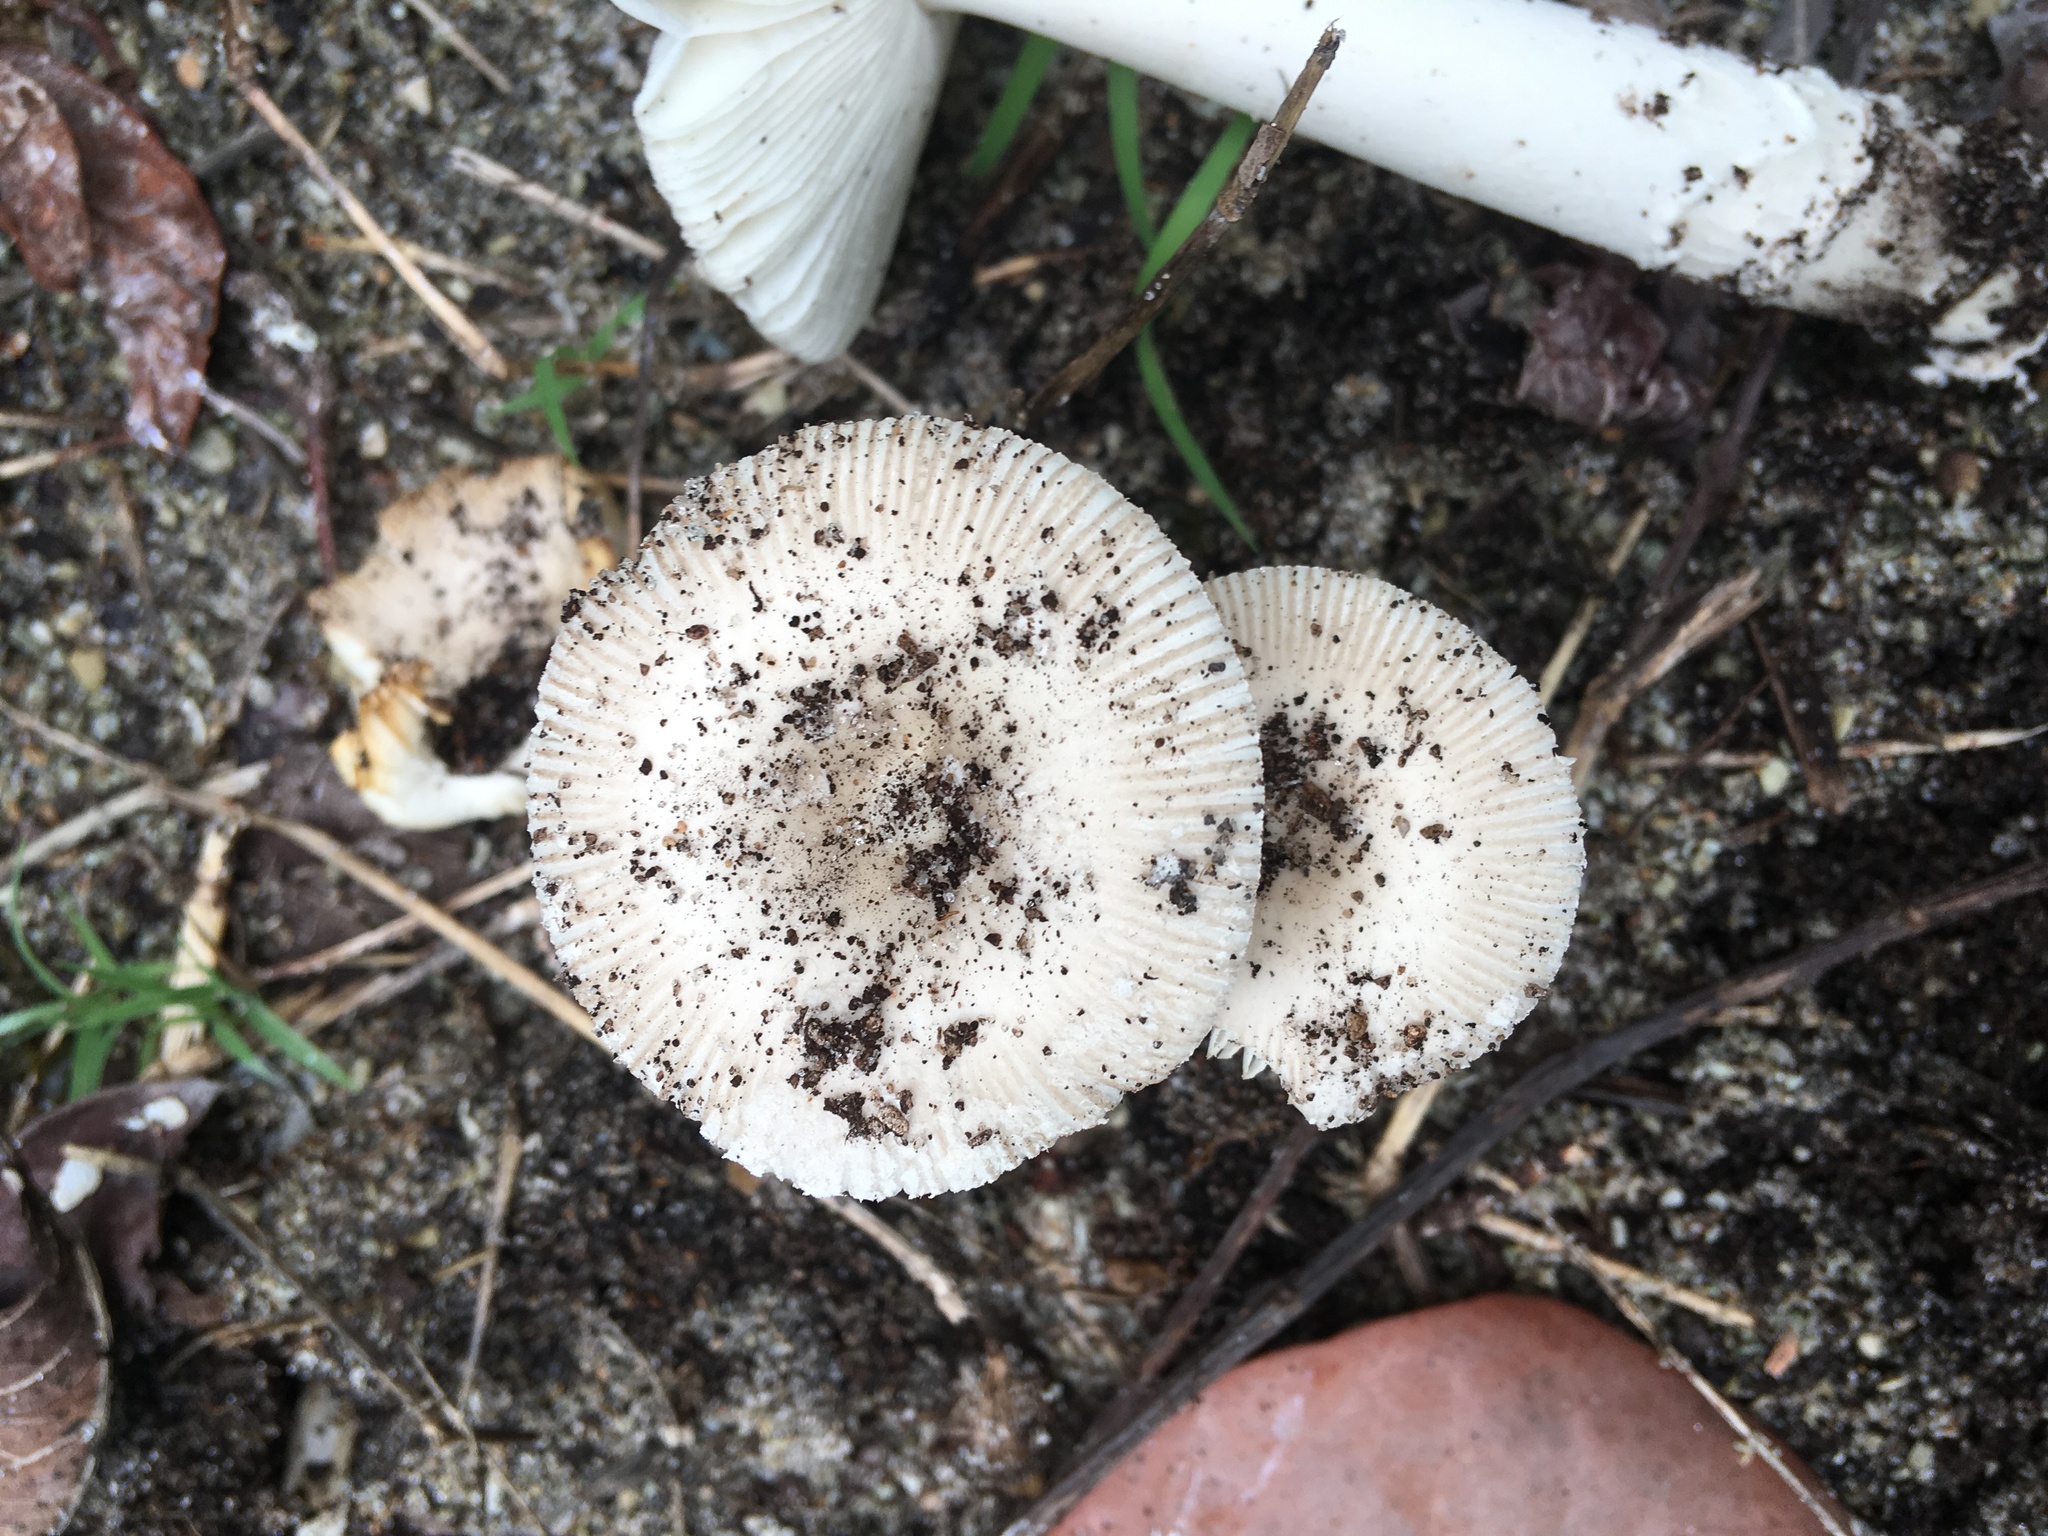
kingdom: Fungi
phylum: Basidiomycota
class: Agaricomycetes
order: Agaricales
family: Amanitaceae
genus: Amanita
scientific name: Amanita arenicola
